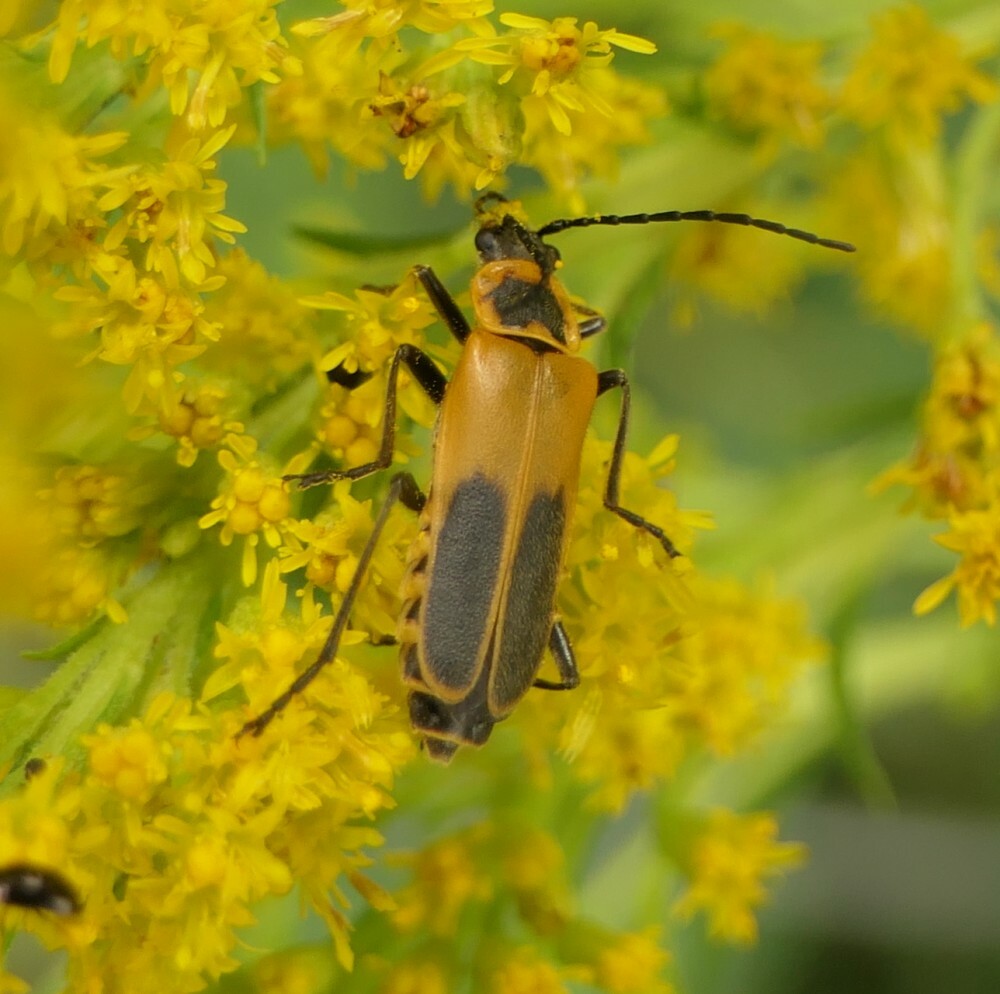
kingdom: Animalia
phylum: Arthropoda
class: Insecta
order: Coleoptera
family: Cantharidae
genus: Chauliognathus
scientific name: Chauliognathus pensylvanicus
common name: Goldenrod soldier beetle
